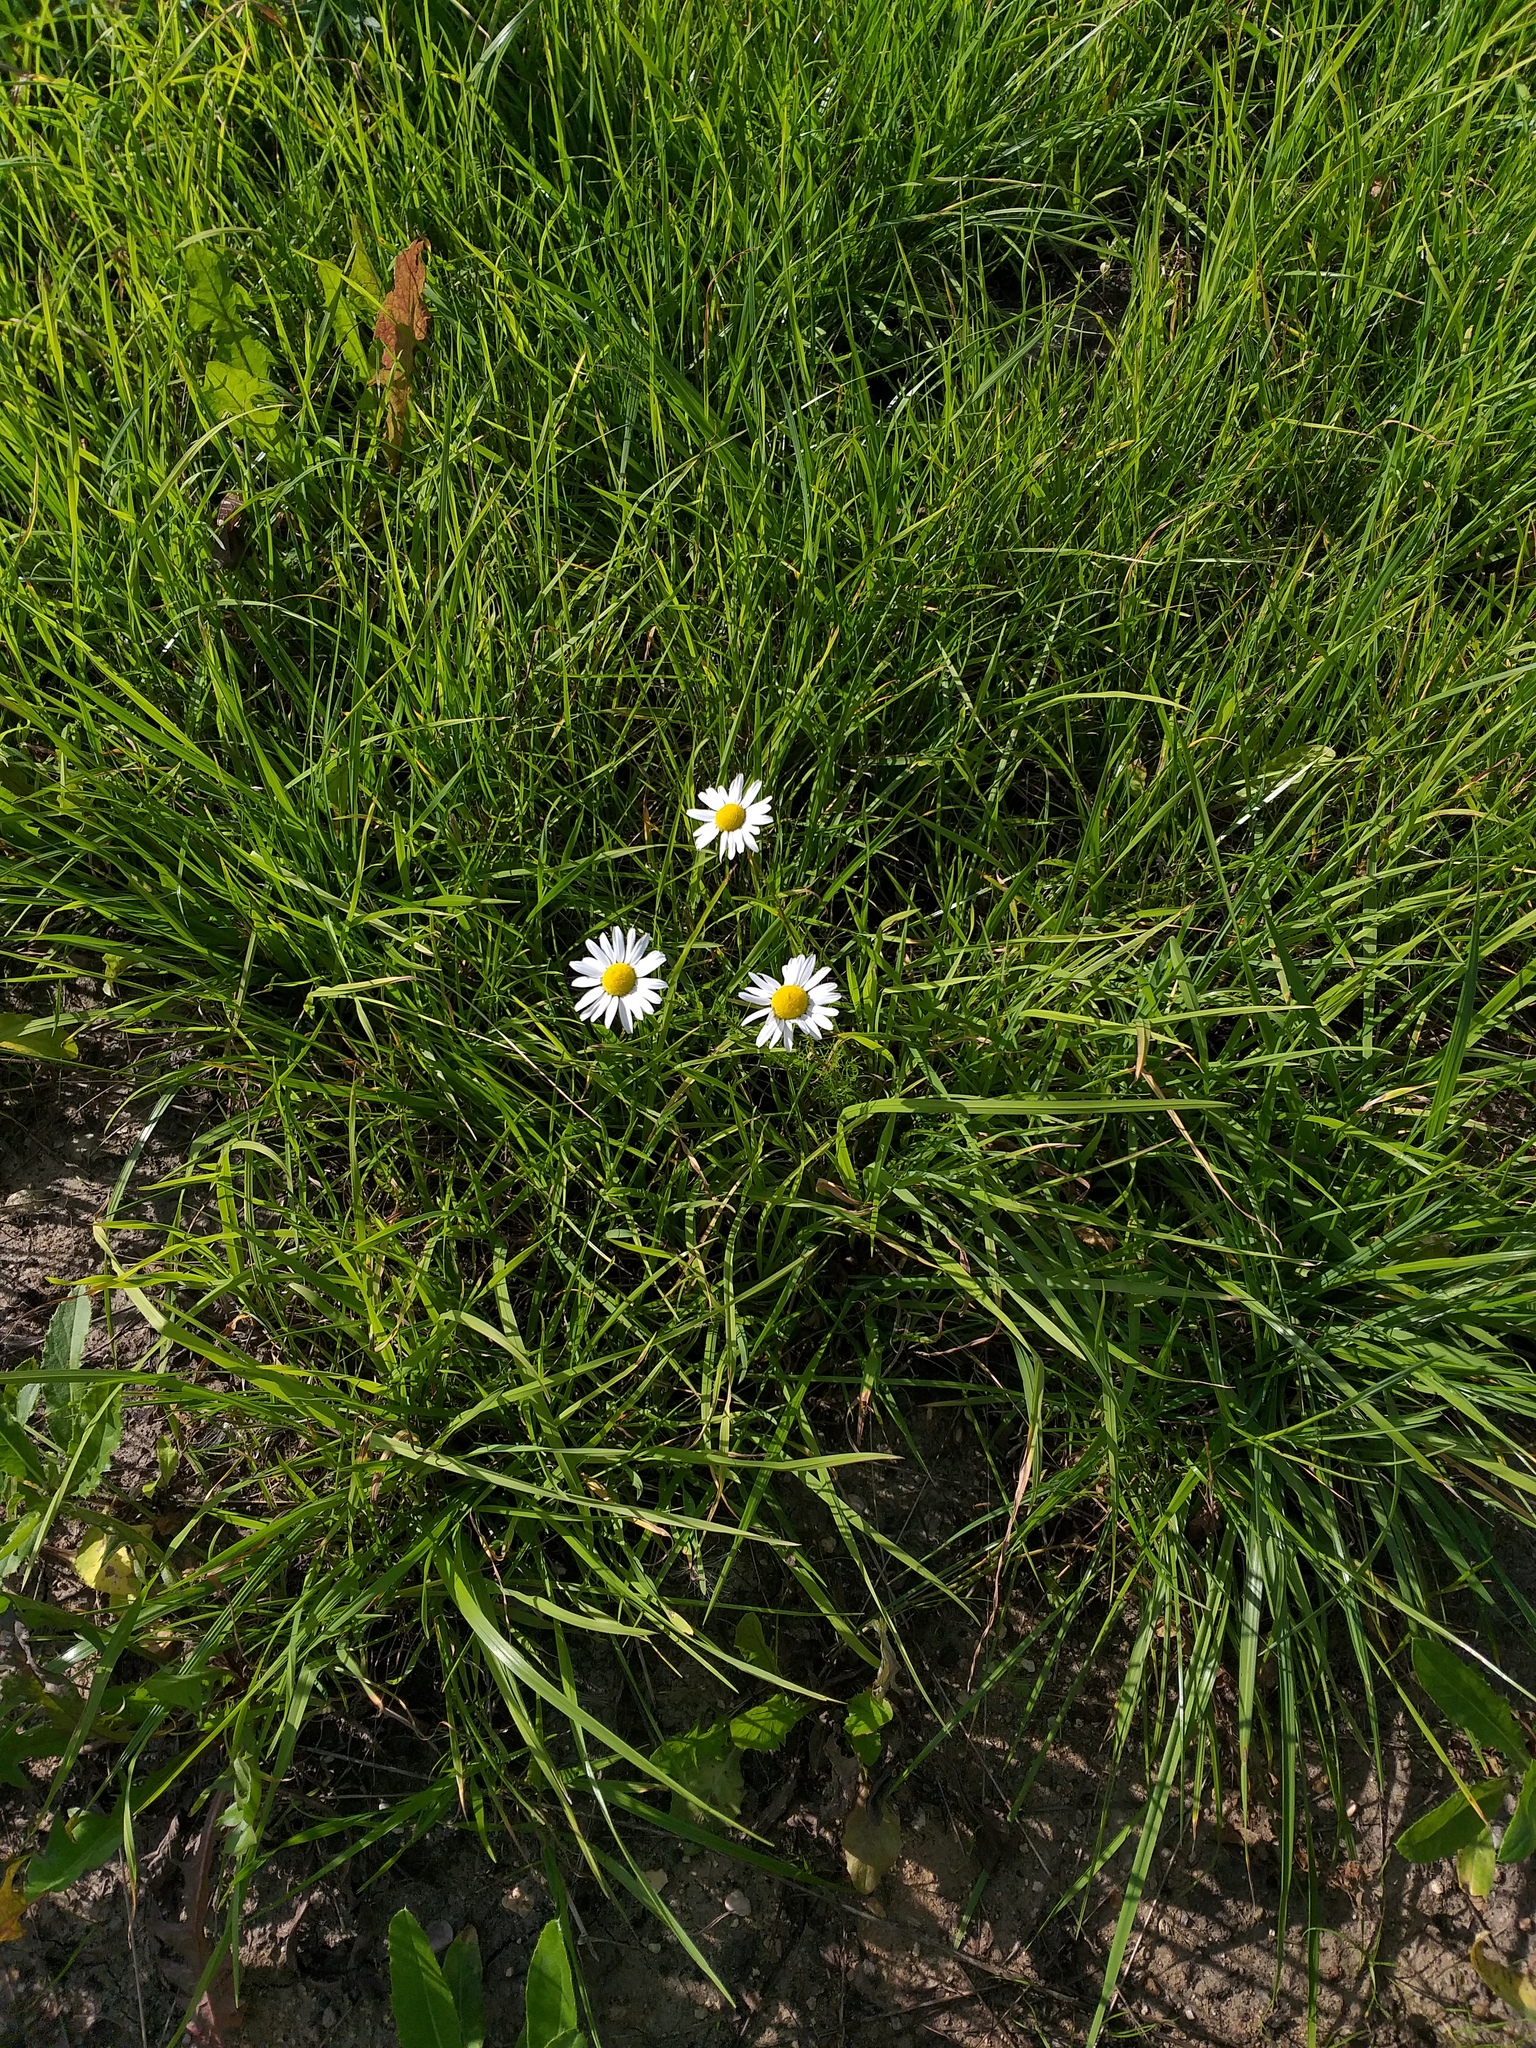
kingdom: Plantae
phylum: Tracheophyta
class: Magnoliopsida
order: Asterales
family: Asteraceae
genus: Tripleurospermum
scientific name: Tripleurospermum inodorum
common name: Scentless mayweed
